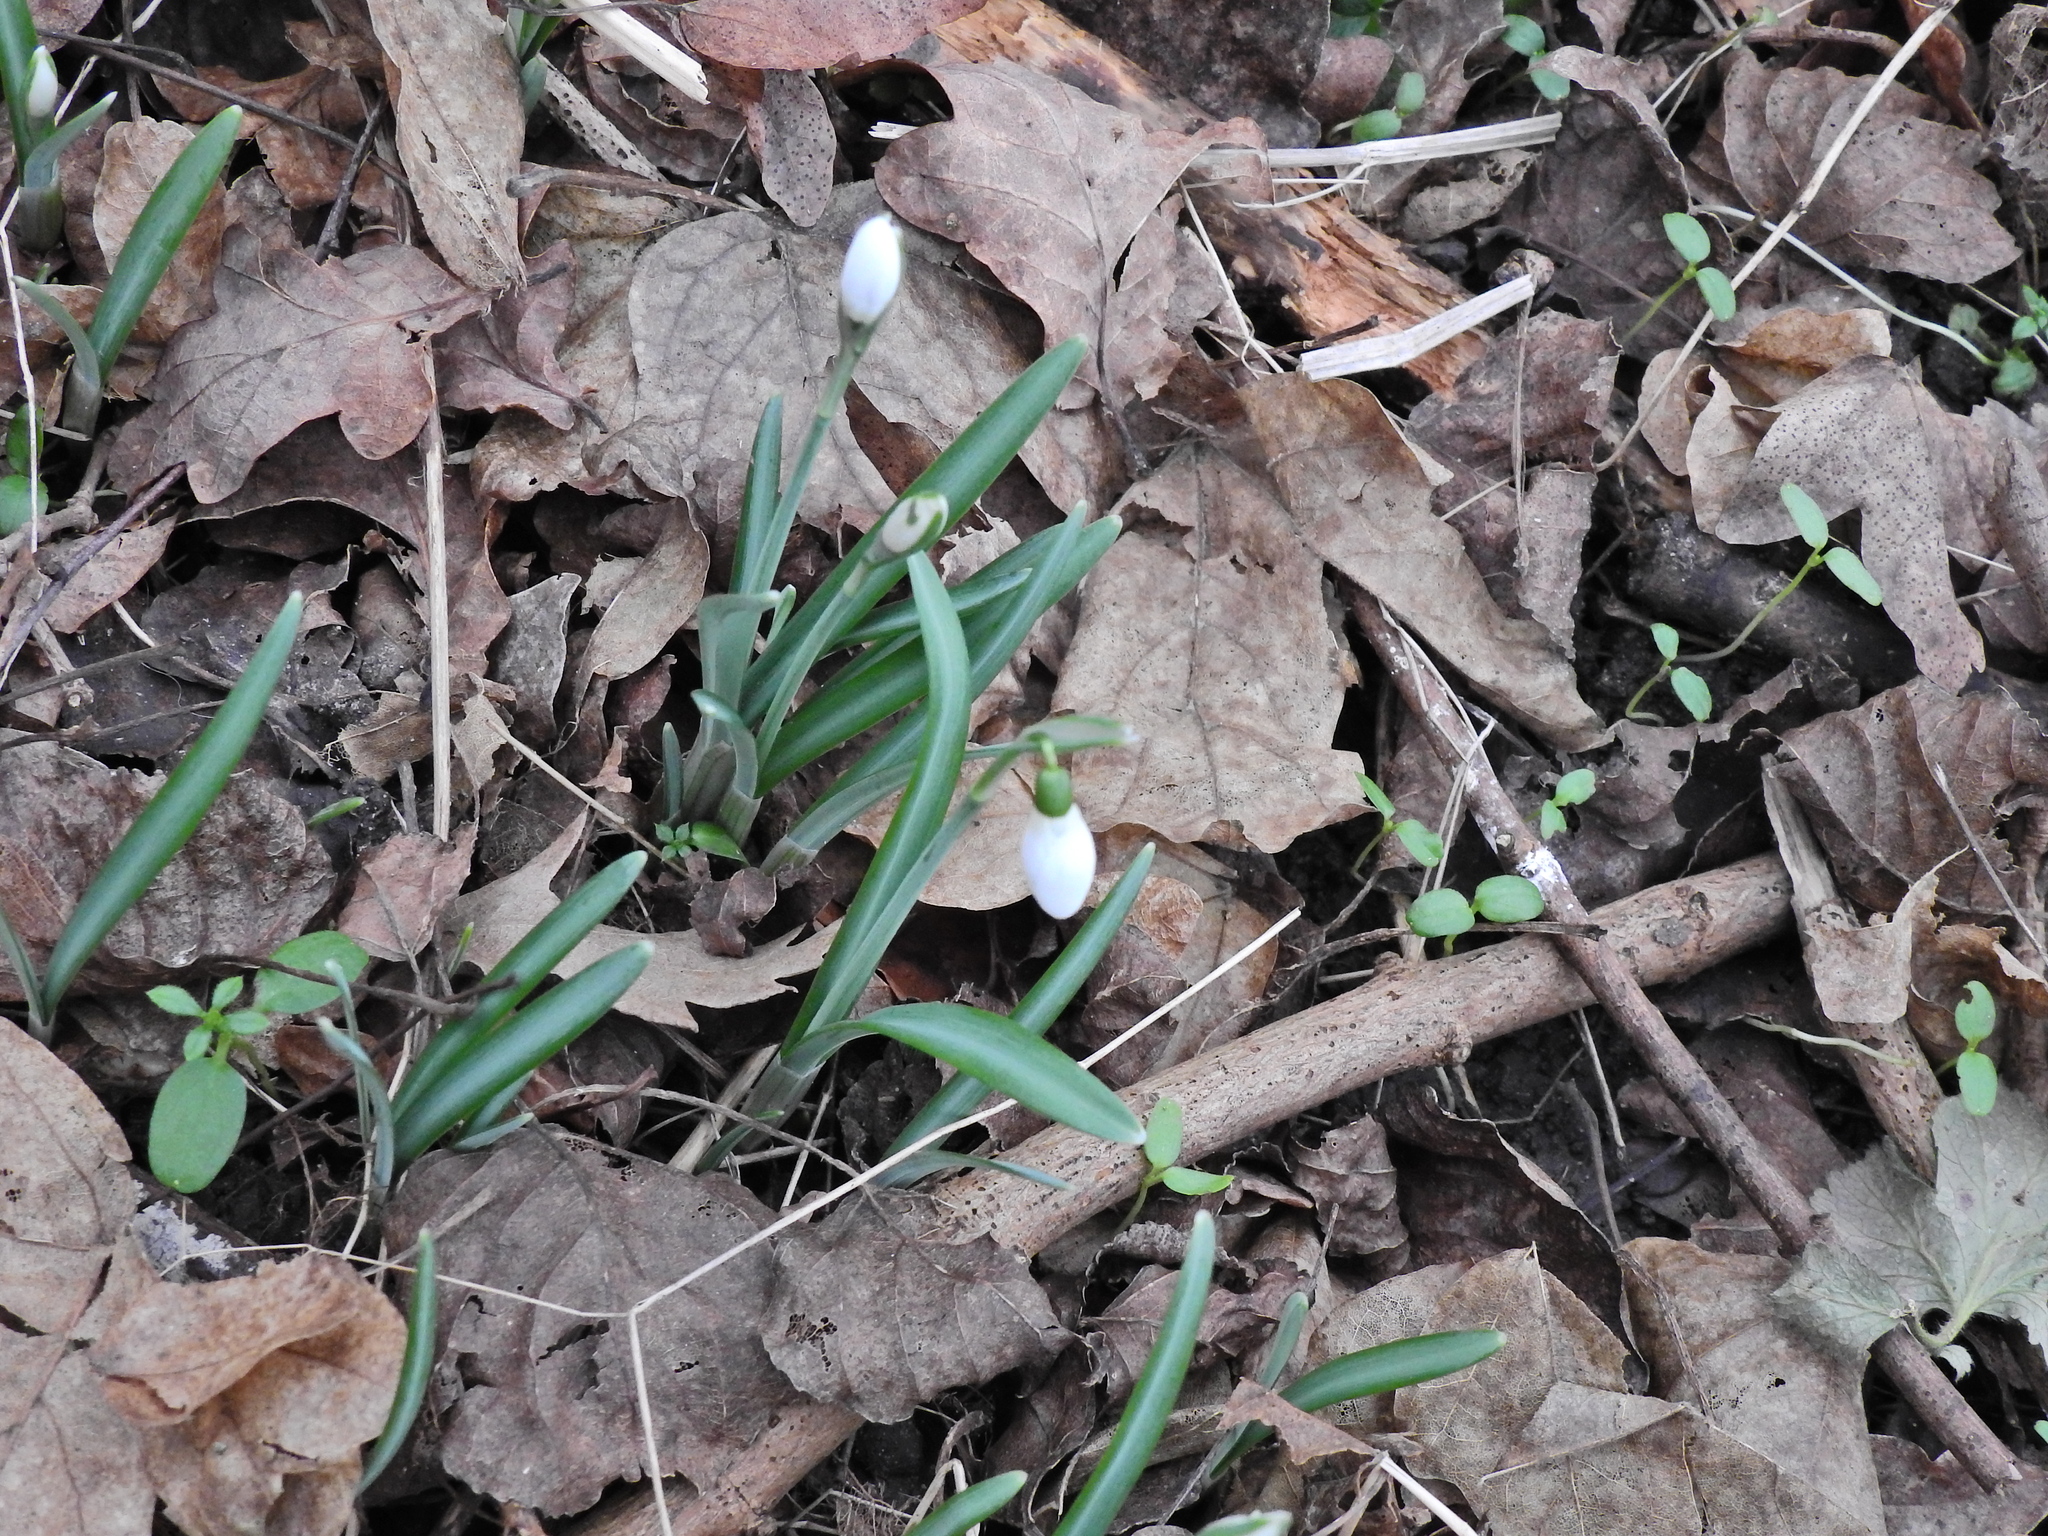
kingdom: Plantae
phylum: Tracheophyta
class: Liliopsida
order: Asparagales
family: Amaryllidaceae
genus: Galanthus
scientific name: Galanthus nivalis
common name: Snowdrop
